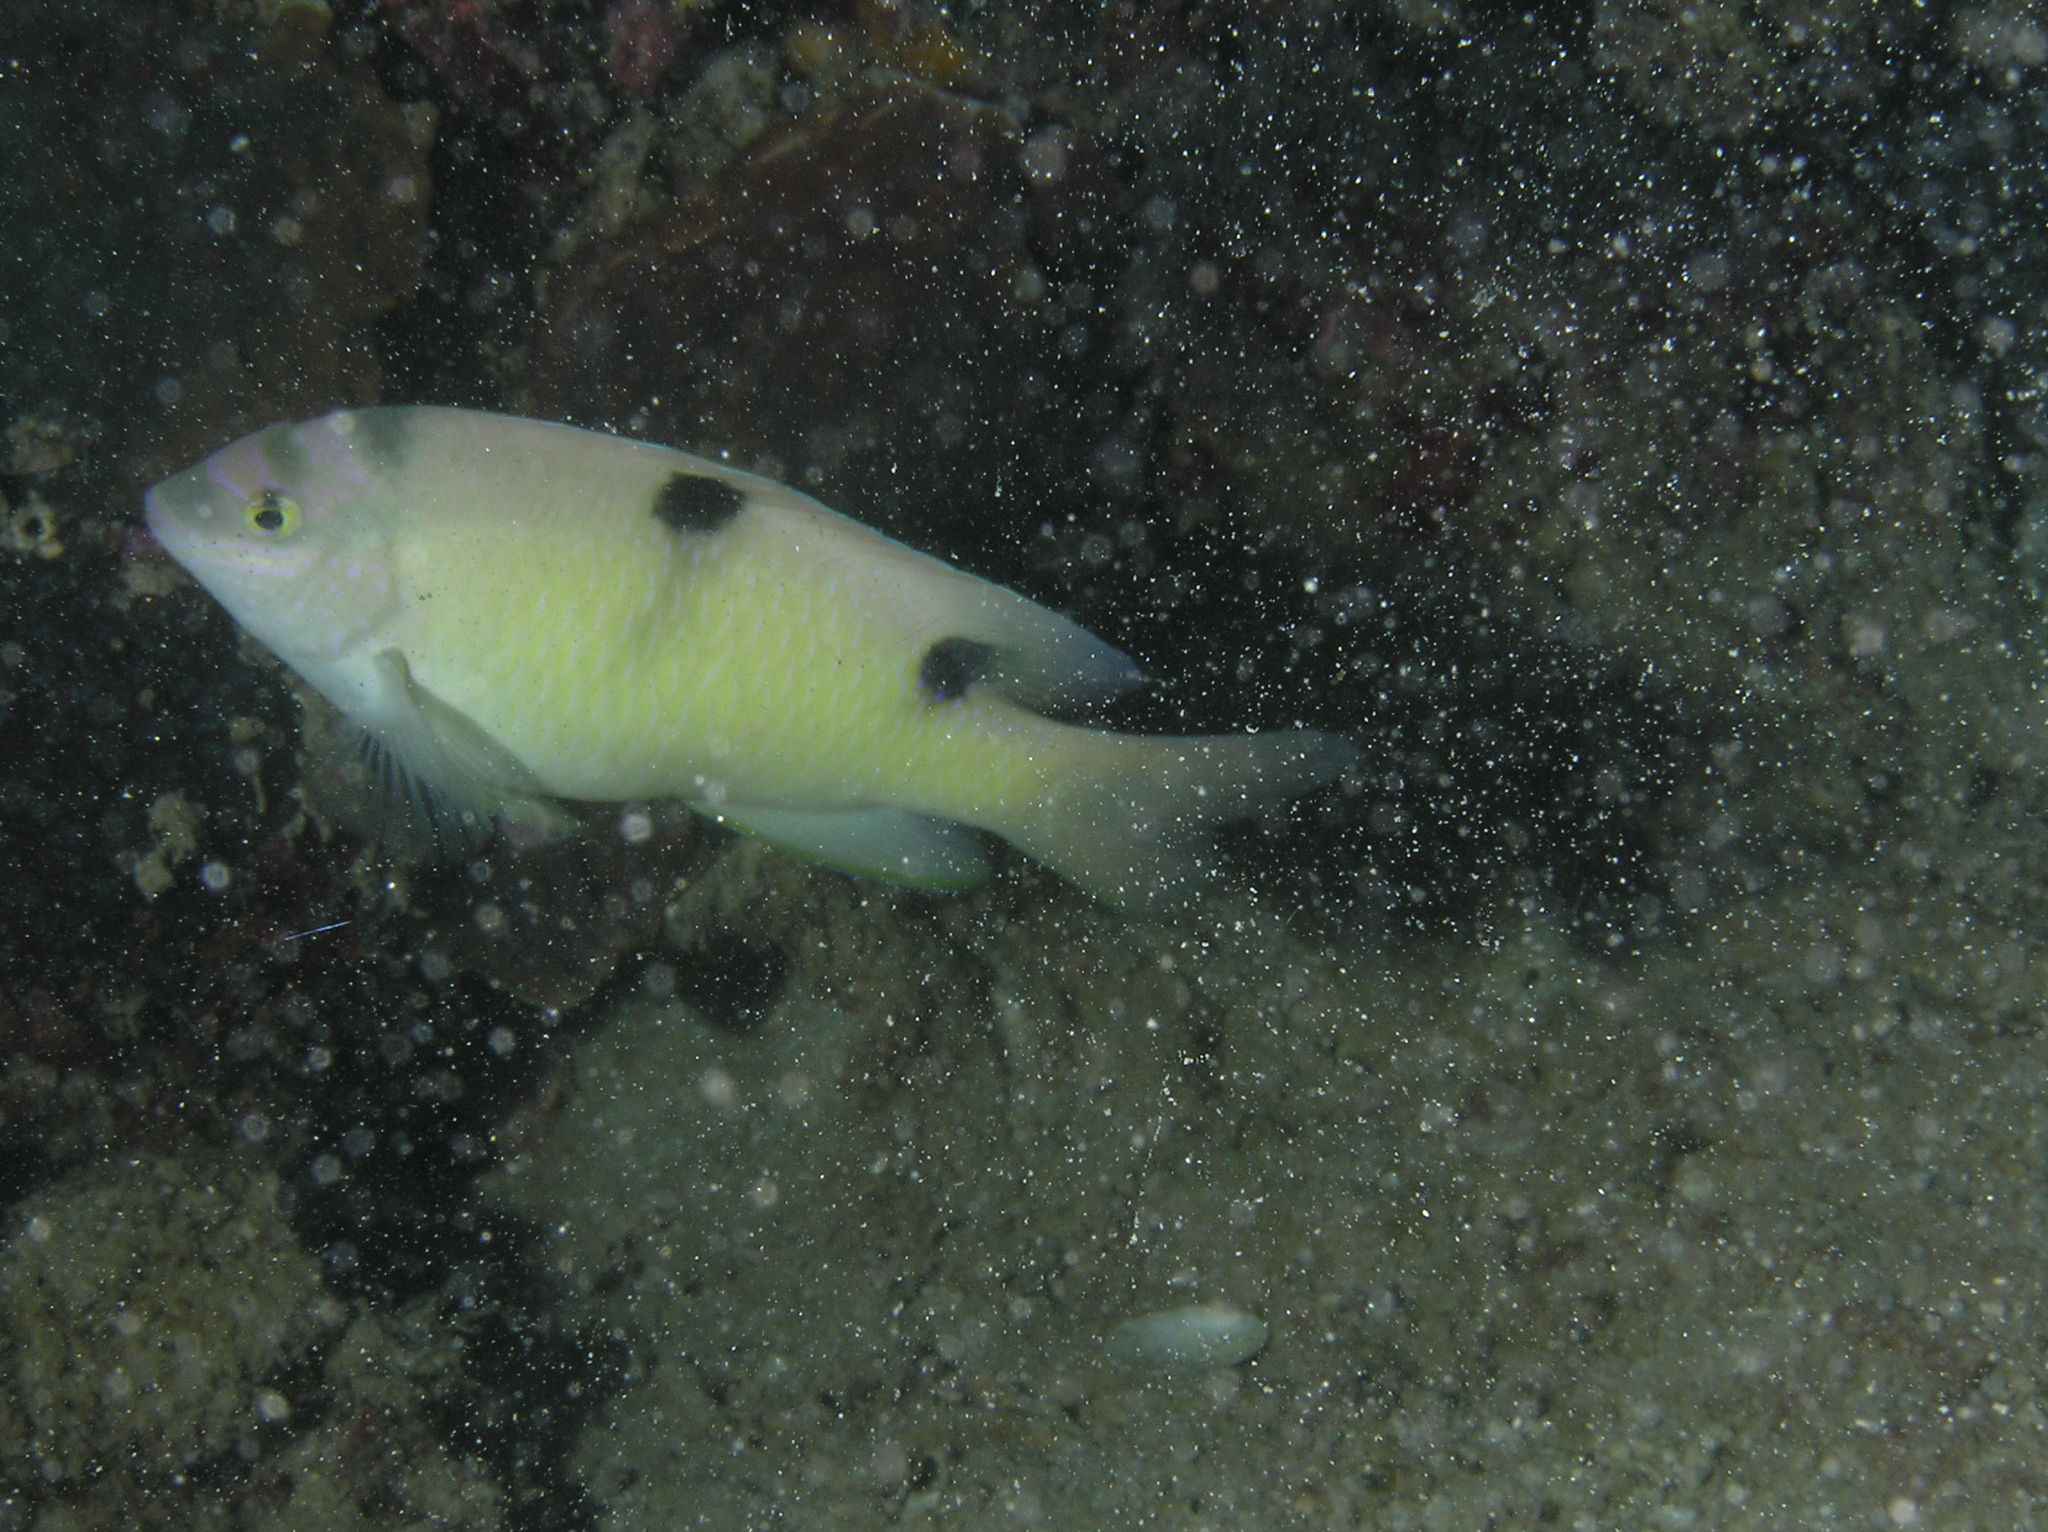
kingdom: Animalia
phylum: Chordata
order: Perciformes
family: Pomacentridae
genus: Dischistodus
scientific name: Dischistodus perspicillatus
